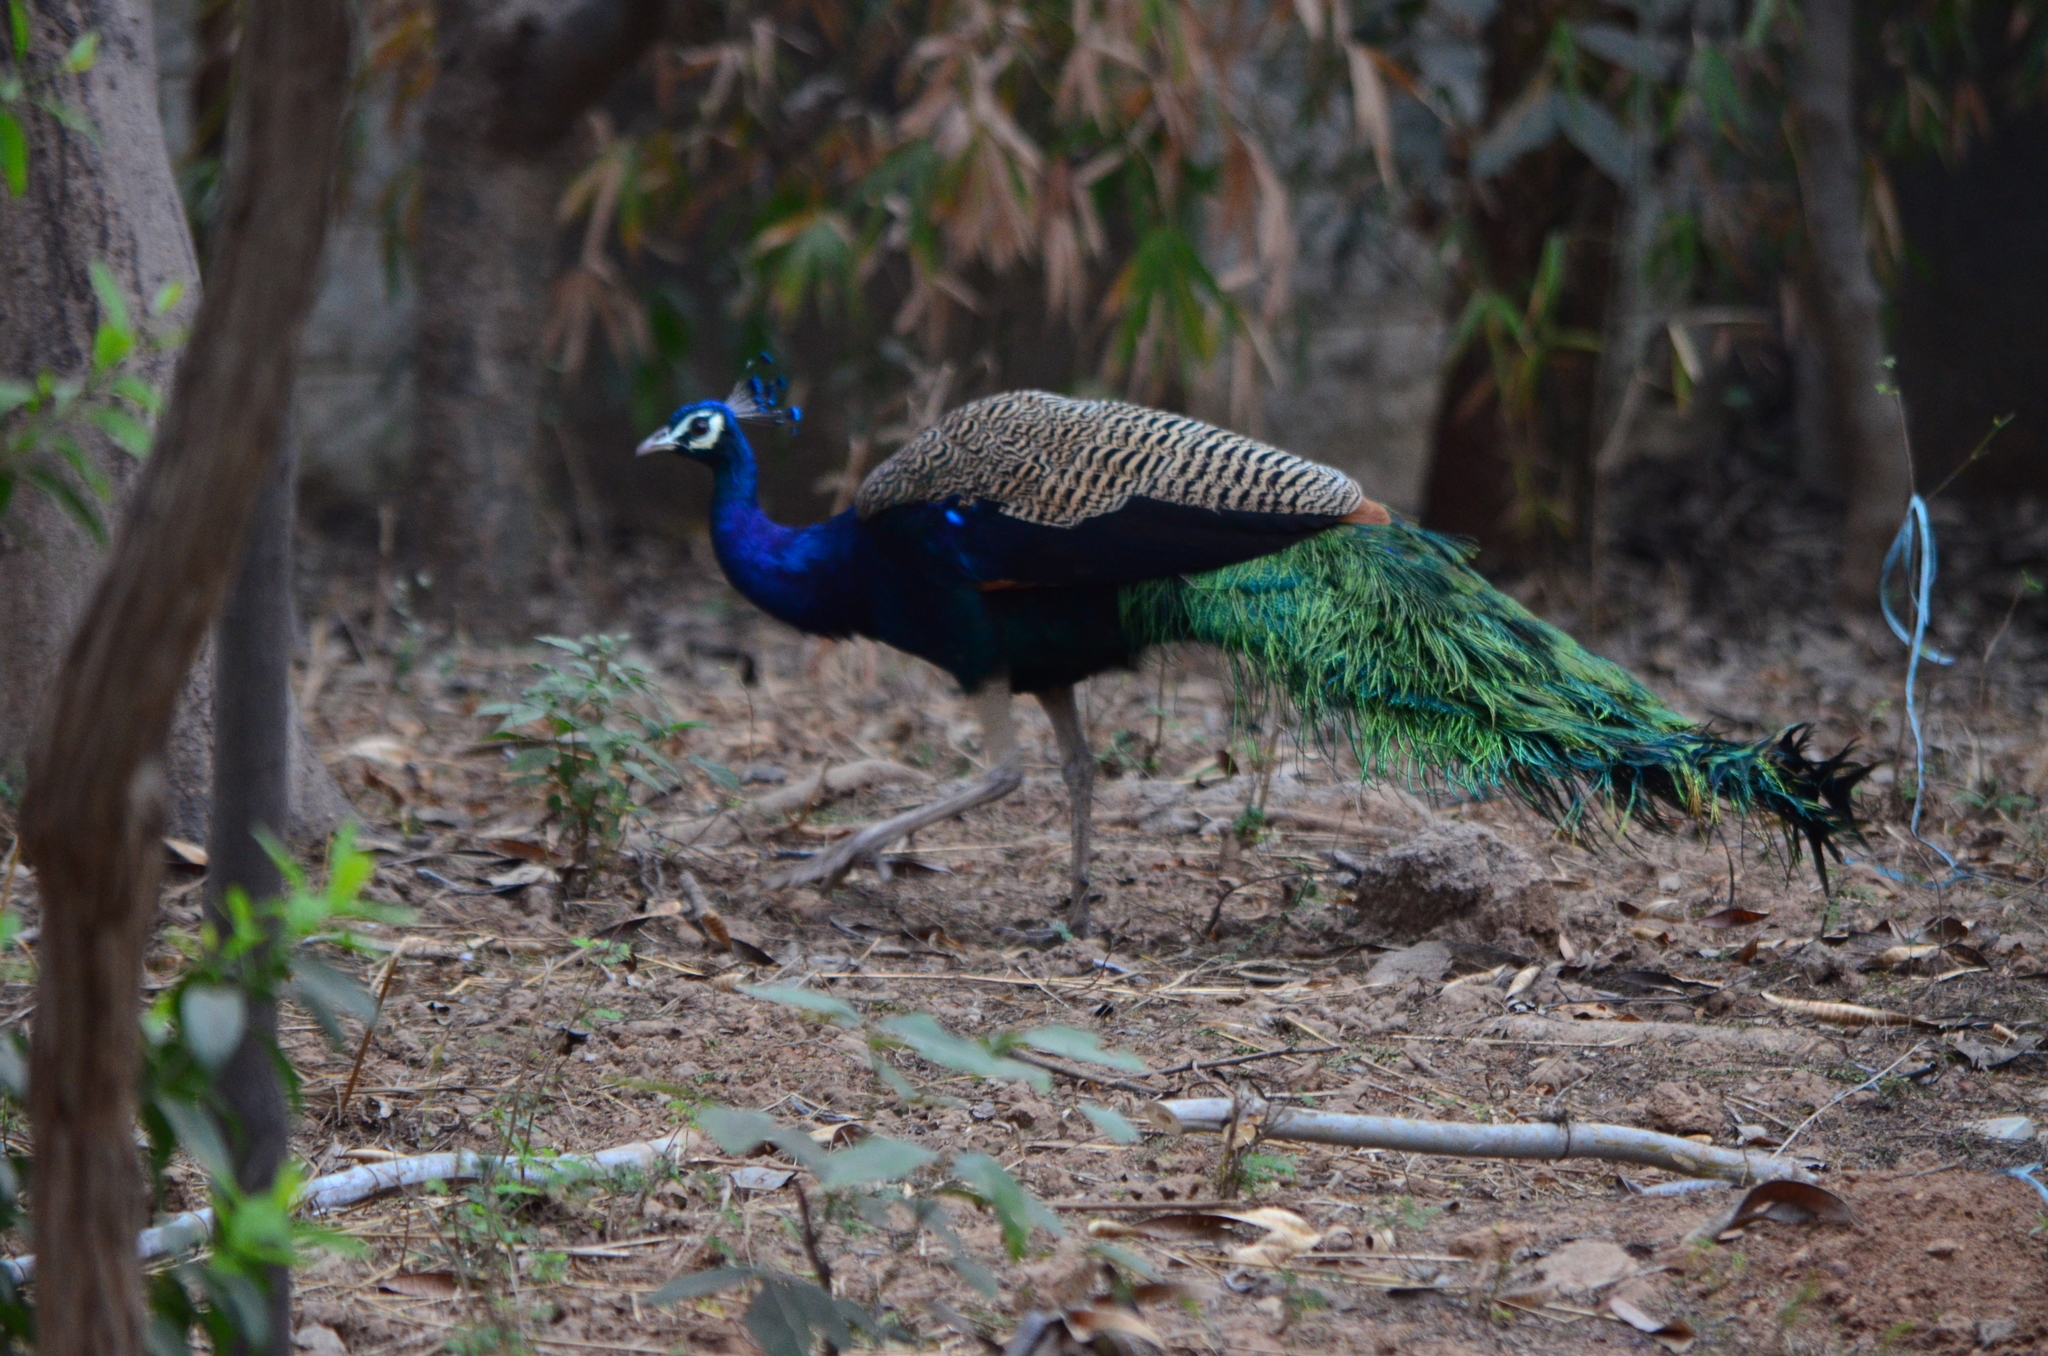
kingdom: Animalia
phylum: Chordata
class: Aves
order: Galliformes
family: Phasianidae
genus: Pavo
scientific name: Pavo cristatus
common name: Indian peafowl
